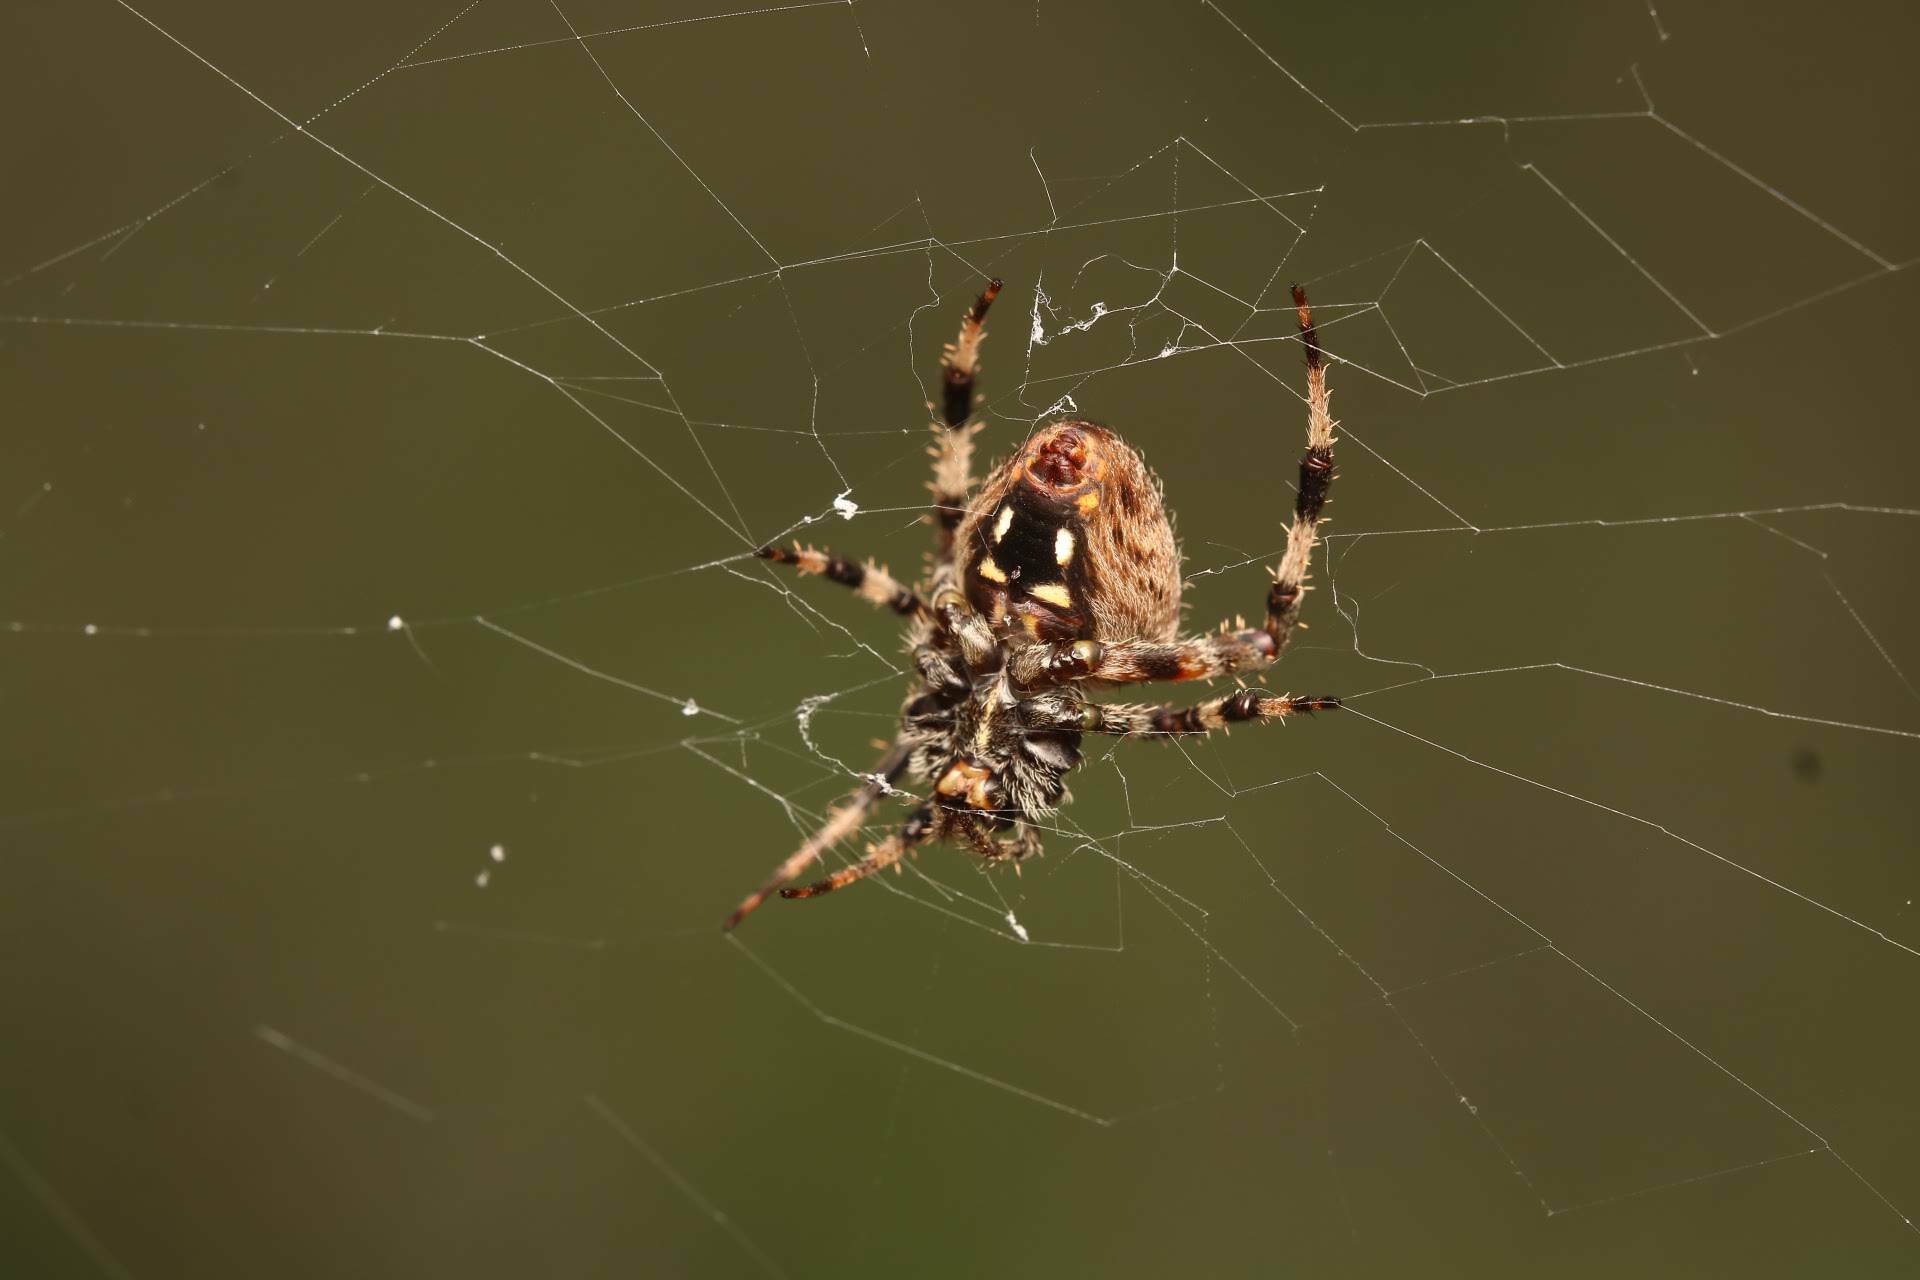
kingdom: Animalia
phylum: Arthropoda
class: Arachnida
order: Araneae
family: Araneidae
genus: Neoscona
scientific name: Neoscona crucifera
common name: Spotted orbweaver
